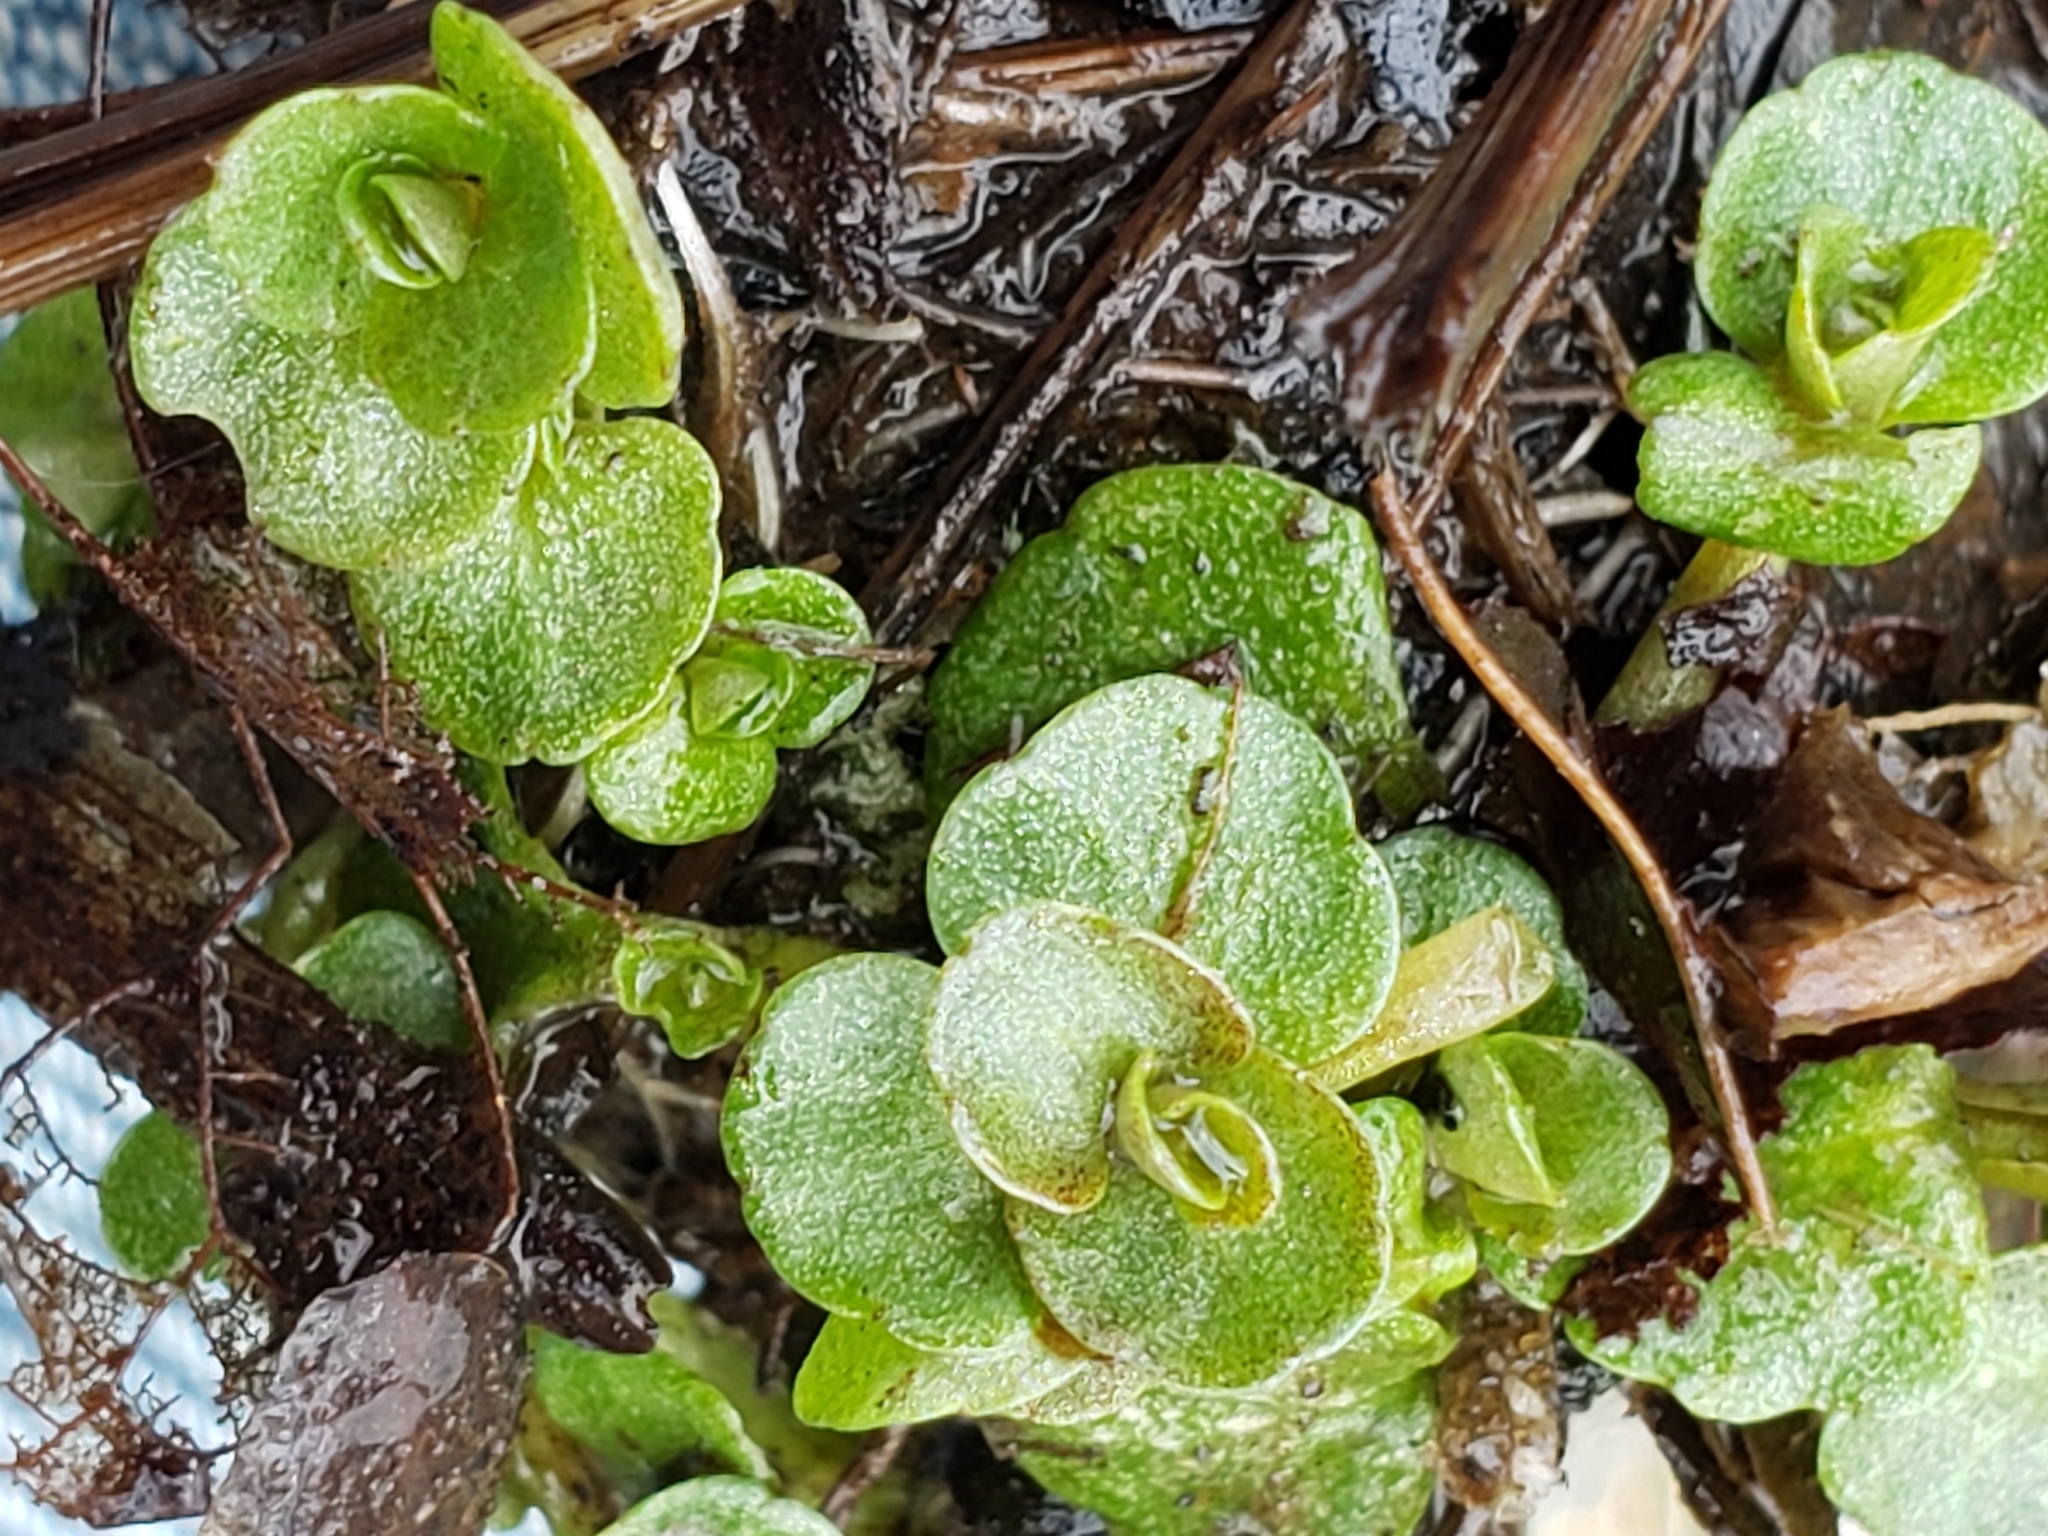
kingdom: Plantae
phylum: Tracheophyta
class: Magnoliopsida
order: Saxifragales
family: Saxifragaceae
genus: Chrysosplenium
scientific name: Chrysosplenium americanum
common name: American golden-saxifrage
